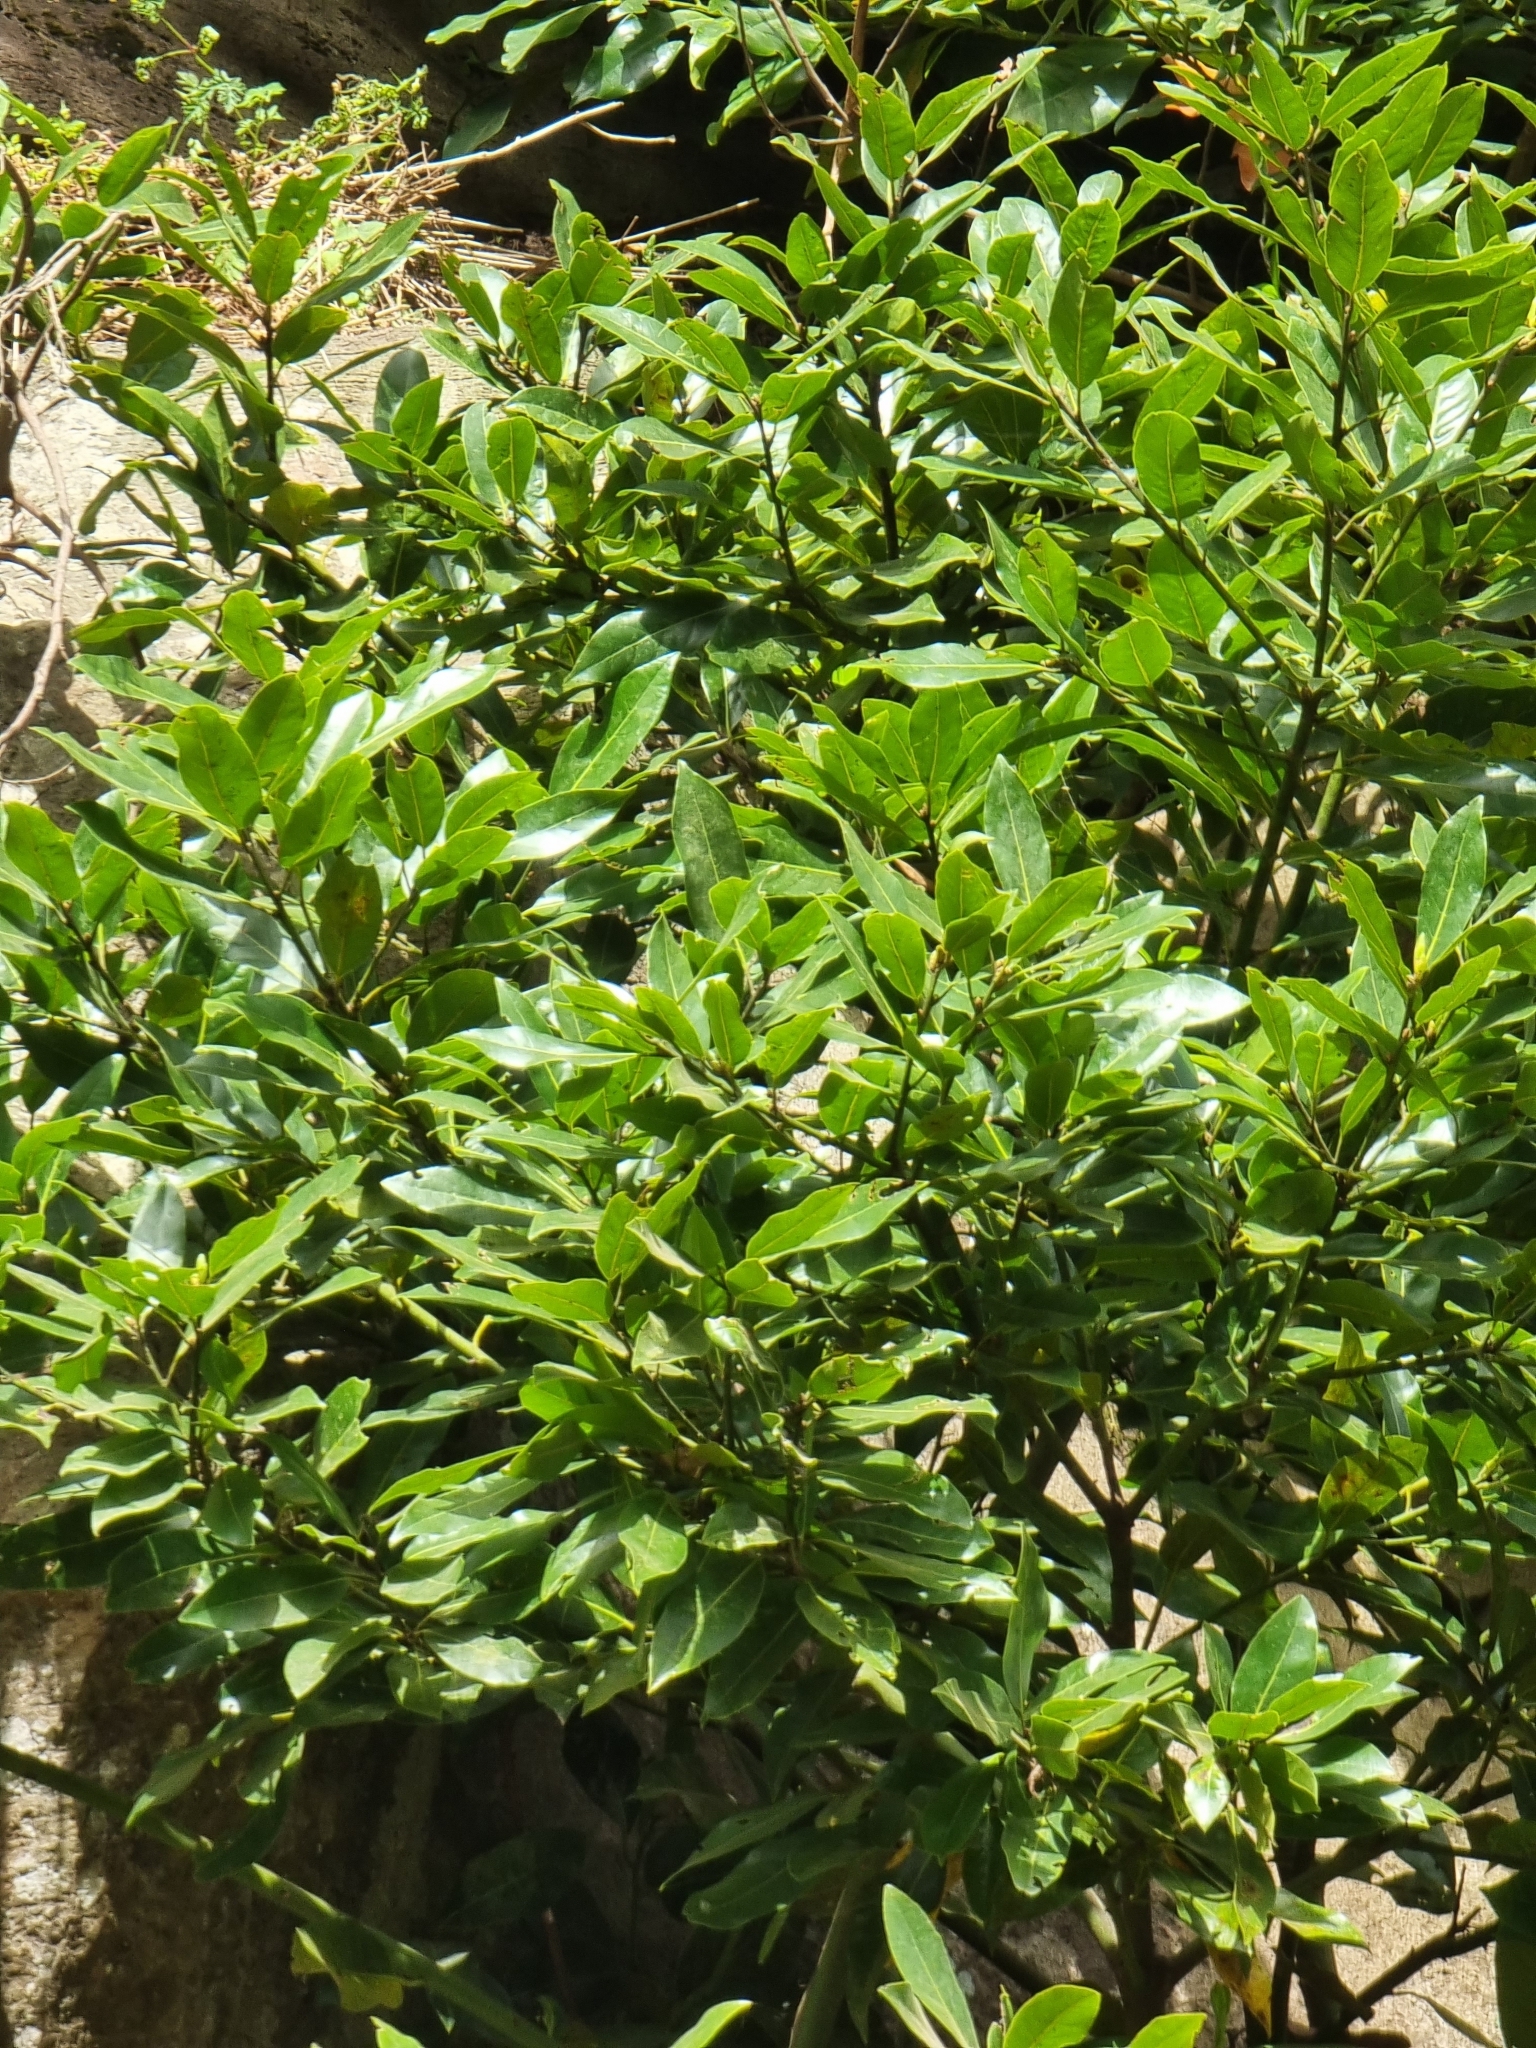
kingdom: Plantae
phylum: Tracheophyta
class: Magnoliopsida
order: Laurales
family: Lauraceae
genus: Laurus
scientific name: Laurus novocanariensis
